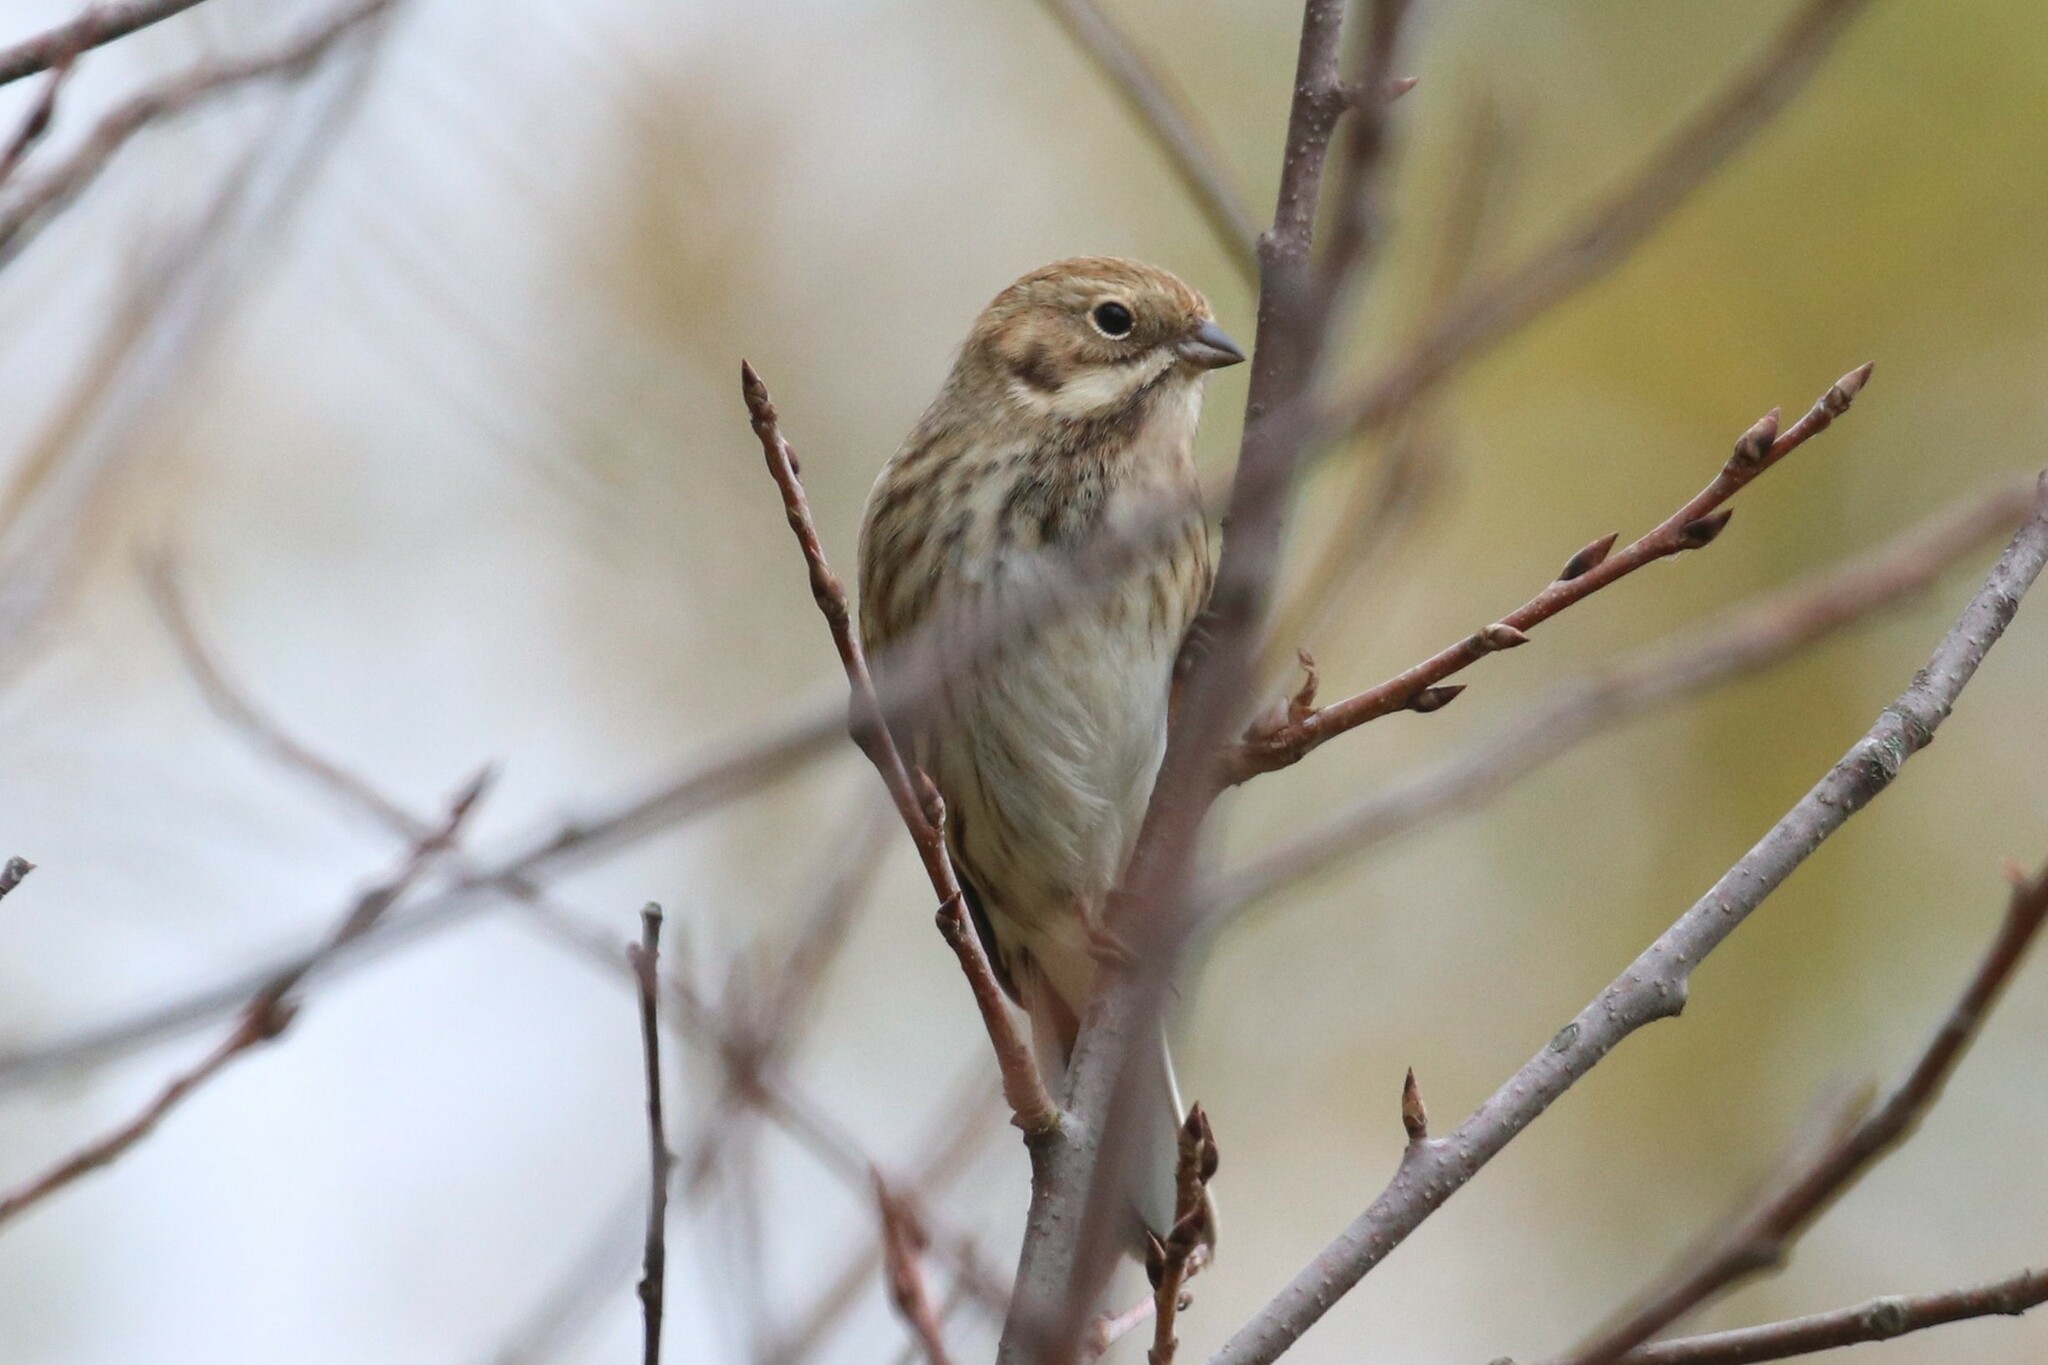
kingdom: Animalia
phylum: Chordata
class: Aves
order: Passeriformes
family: Emberizidae
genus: Emberiza
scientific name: Emberiza schoeniclus
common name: Reed bunting
